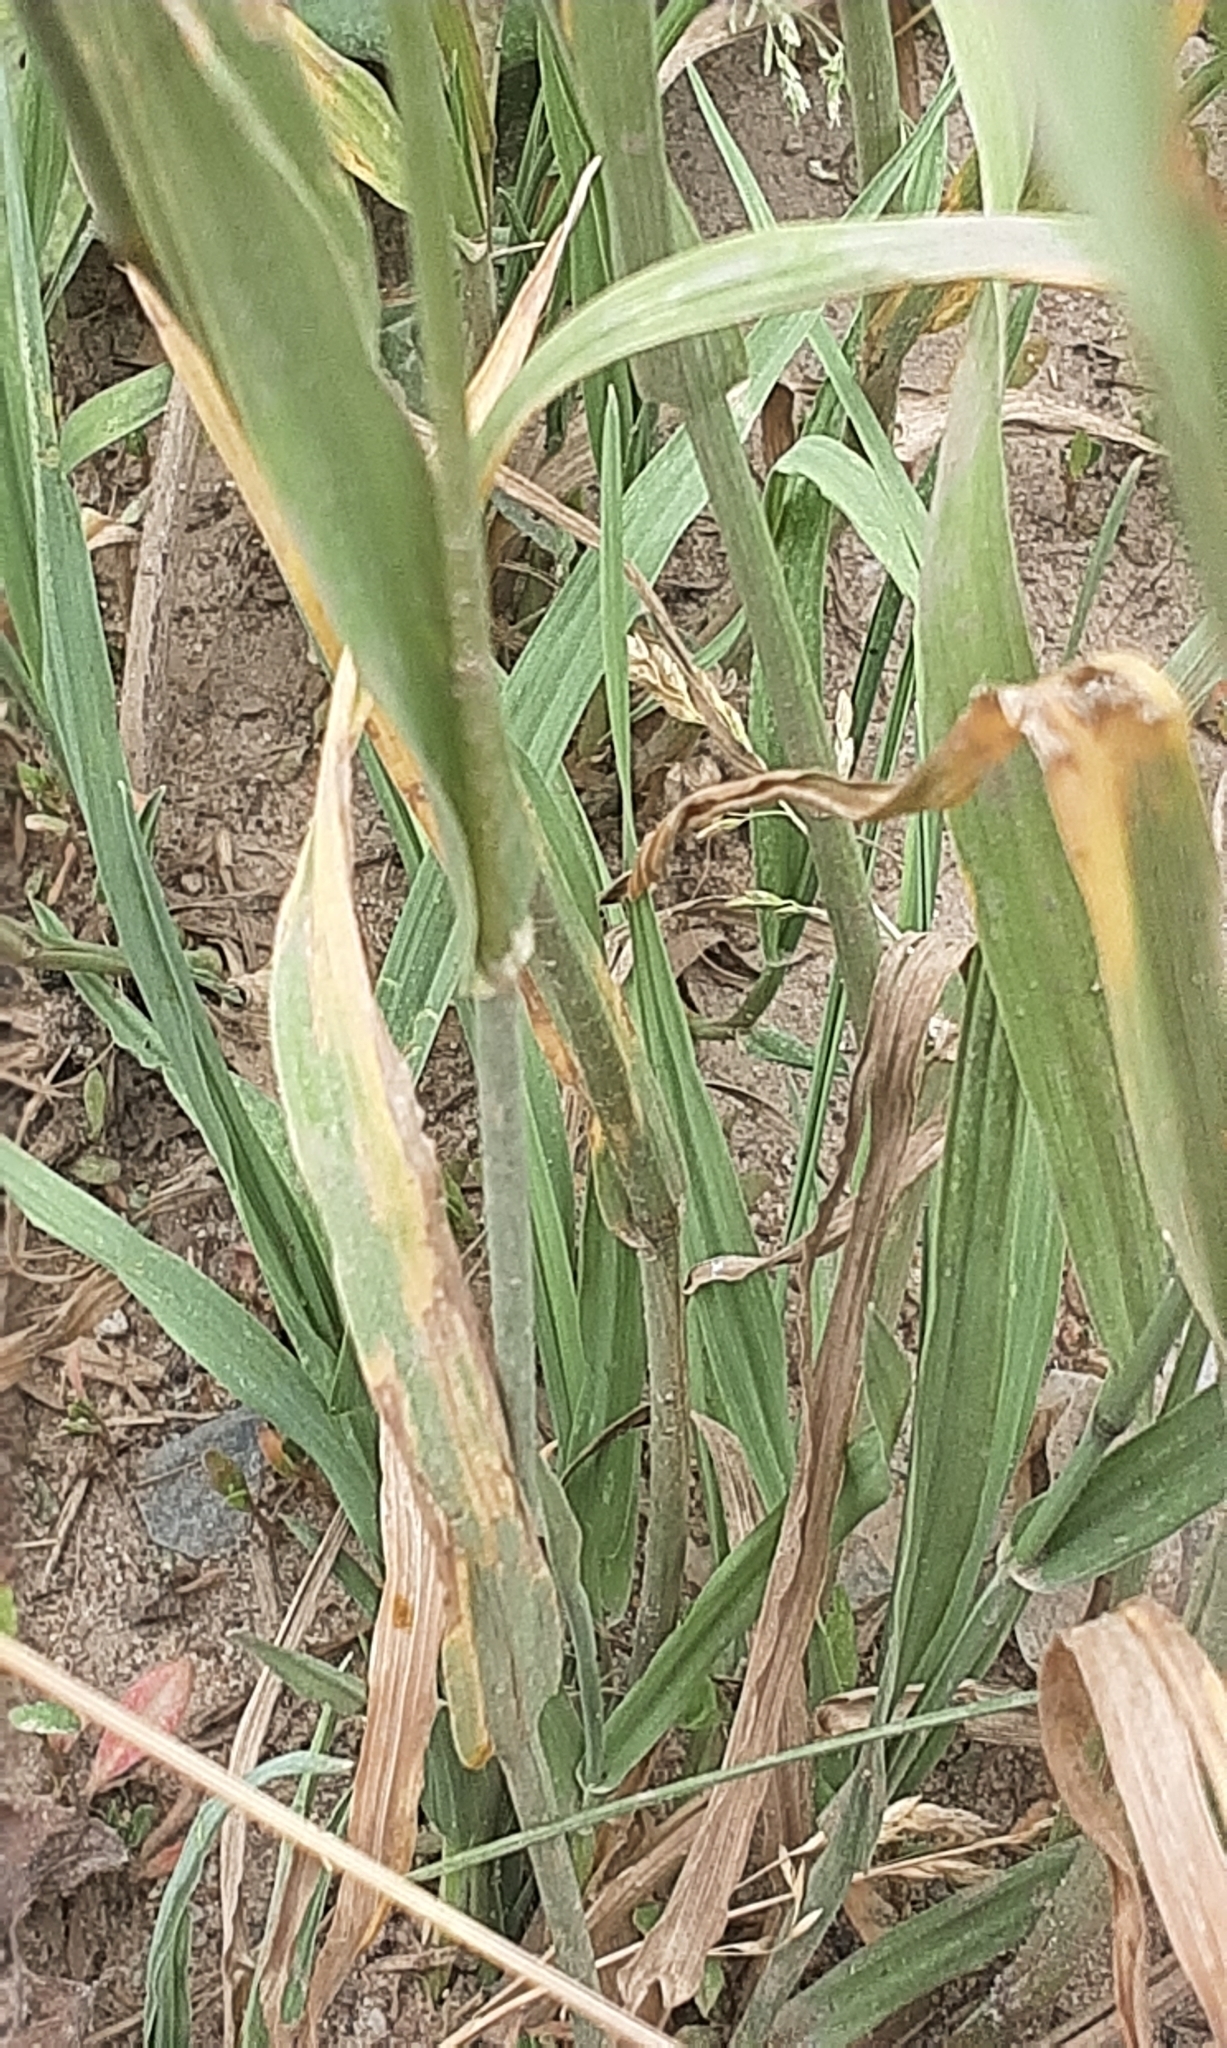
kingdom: Plantae
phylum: Tracheophyta
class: Liliopsida
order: Poales
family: Poaceae
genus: Phleum
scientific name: Phleum pratense
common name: Timothy grass
